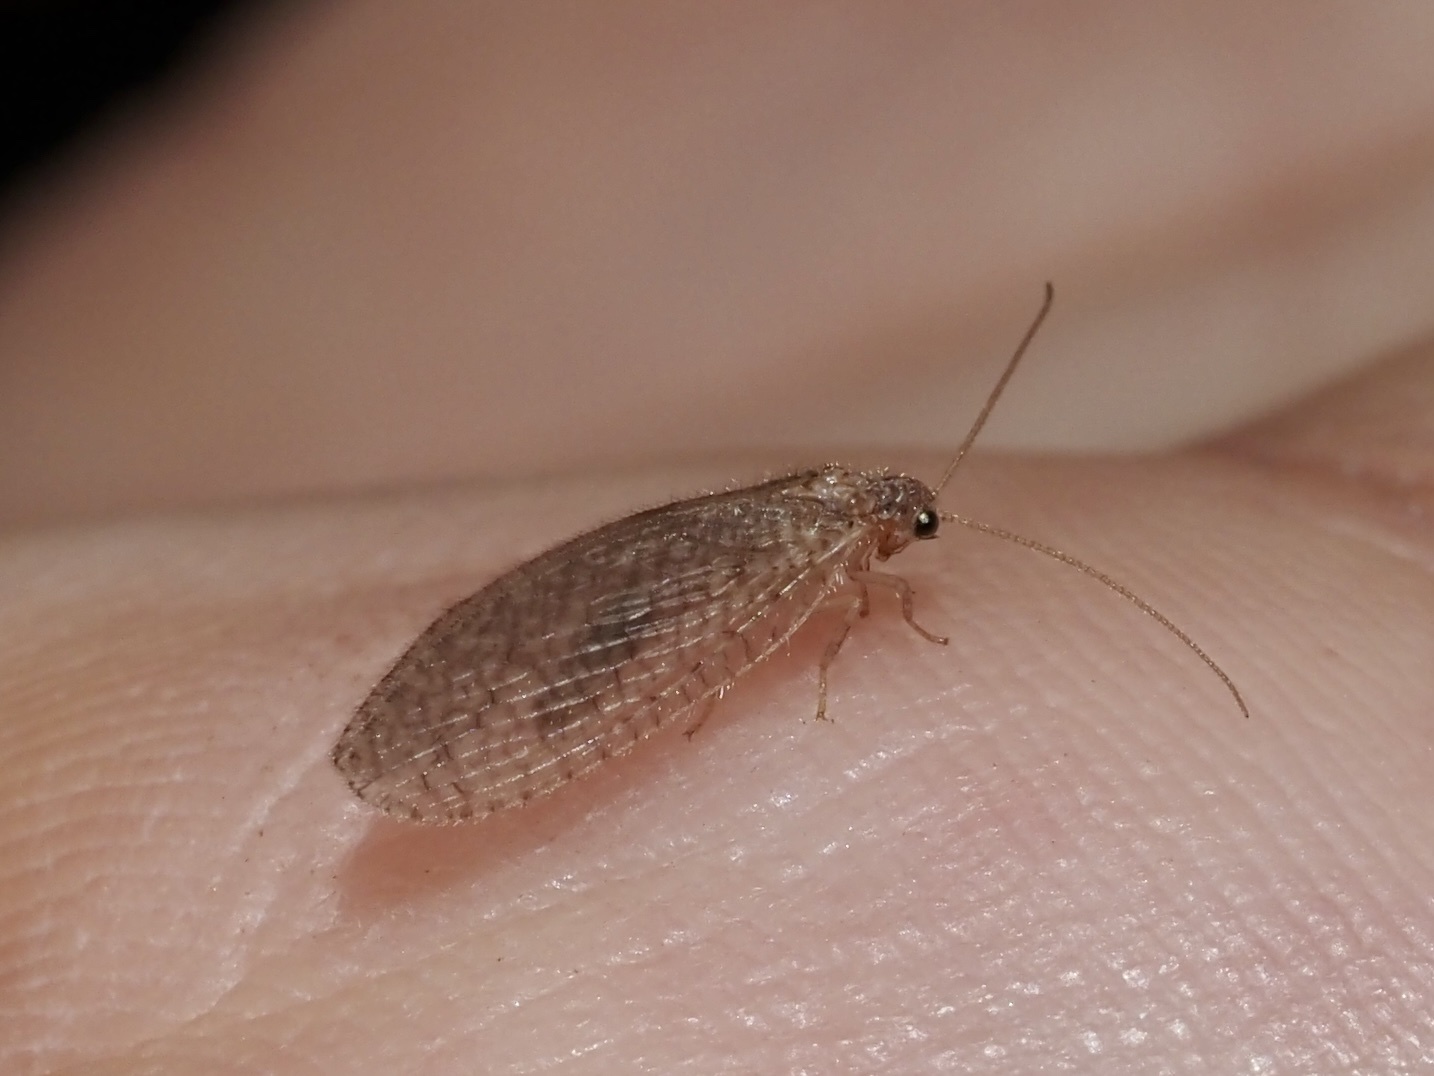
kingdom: Animalia
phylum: Arthropoda
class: Insecta
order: Neuroptera
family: Hemerobiidae
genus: Micromus
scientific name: Micromus posticus
